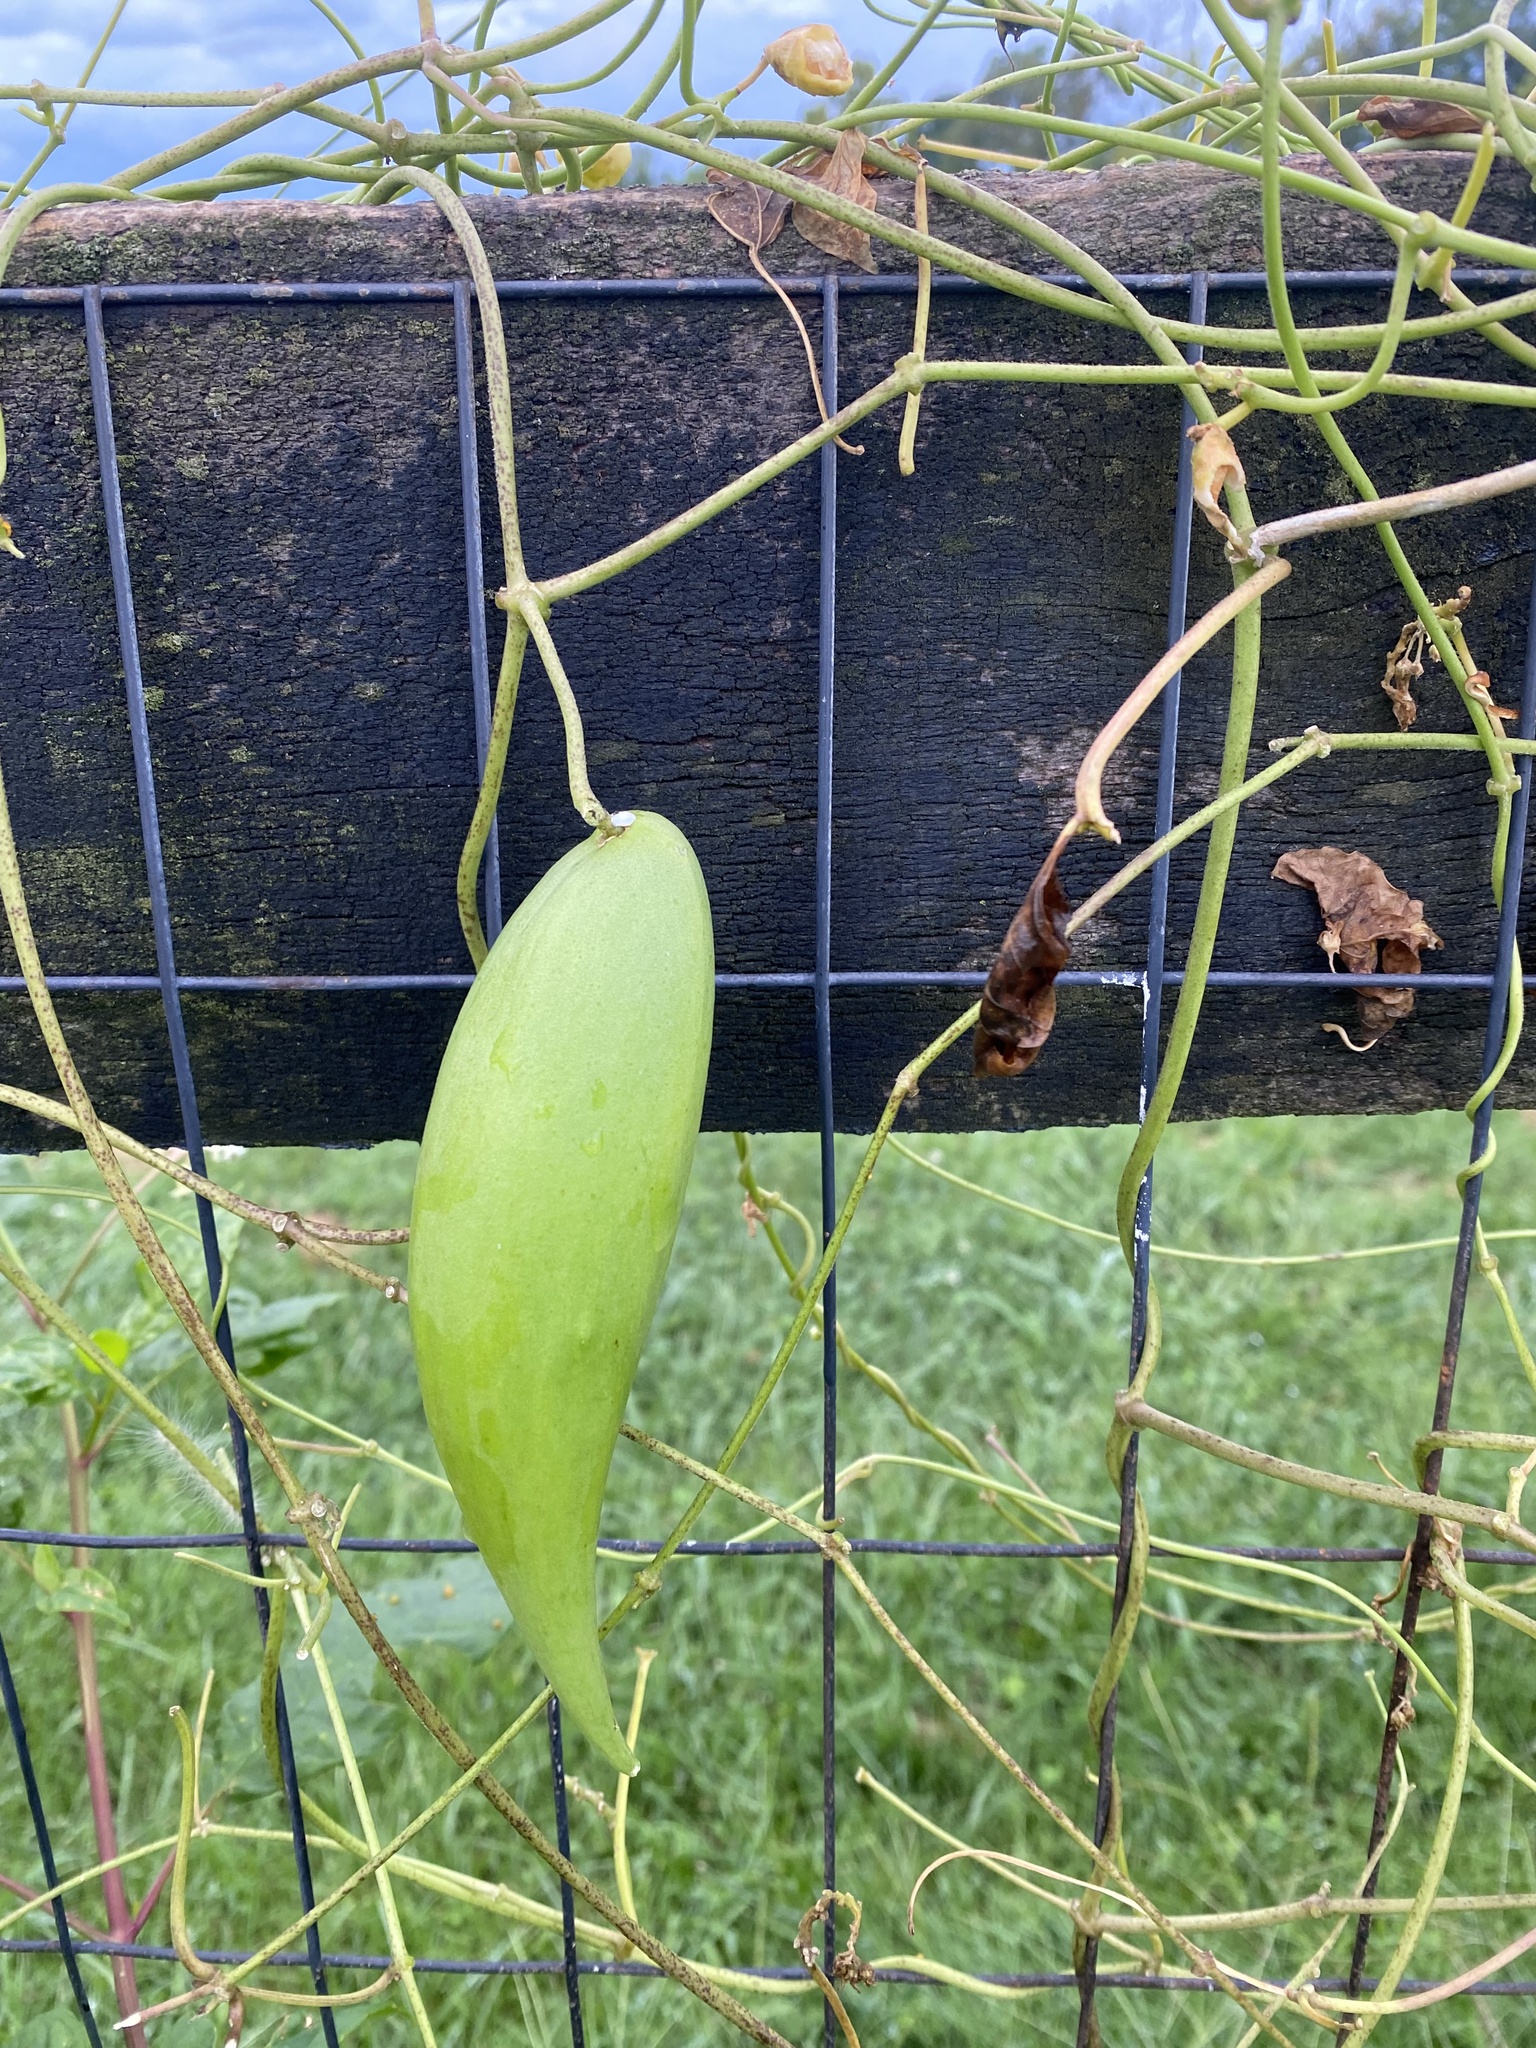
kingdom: Plantae
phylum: Tracheophyta
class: Magnoliopsida
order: Gentianales
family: Apocynaceae
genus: Cynanchum
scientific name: Cynanchum laeve
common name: Sandvine
